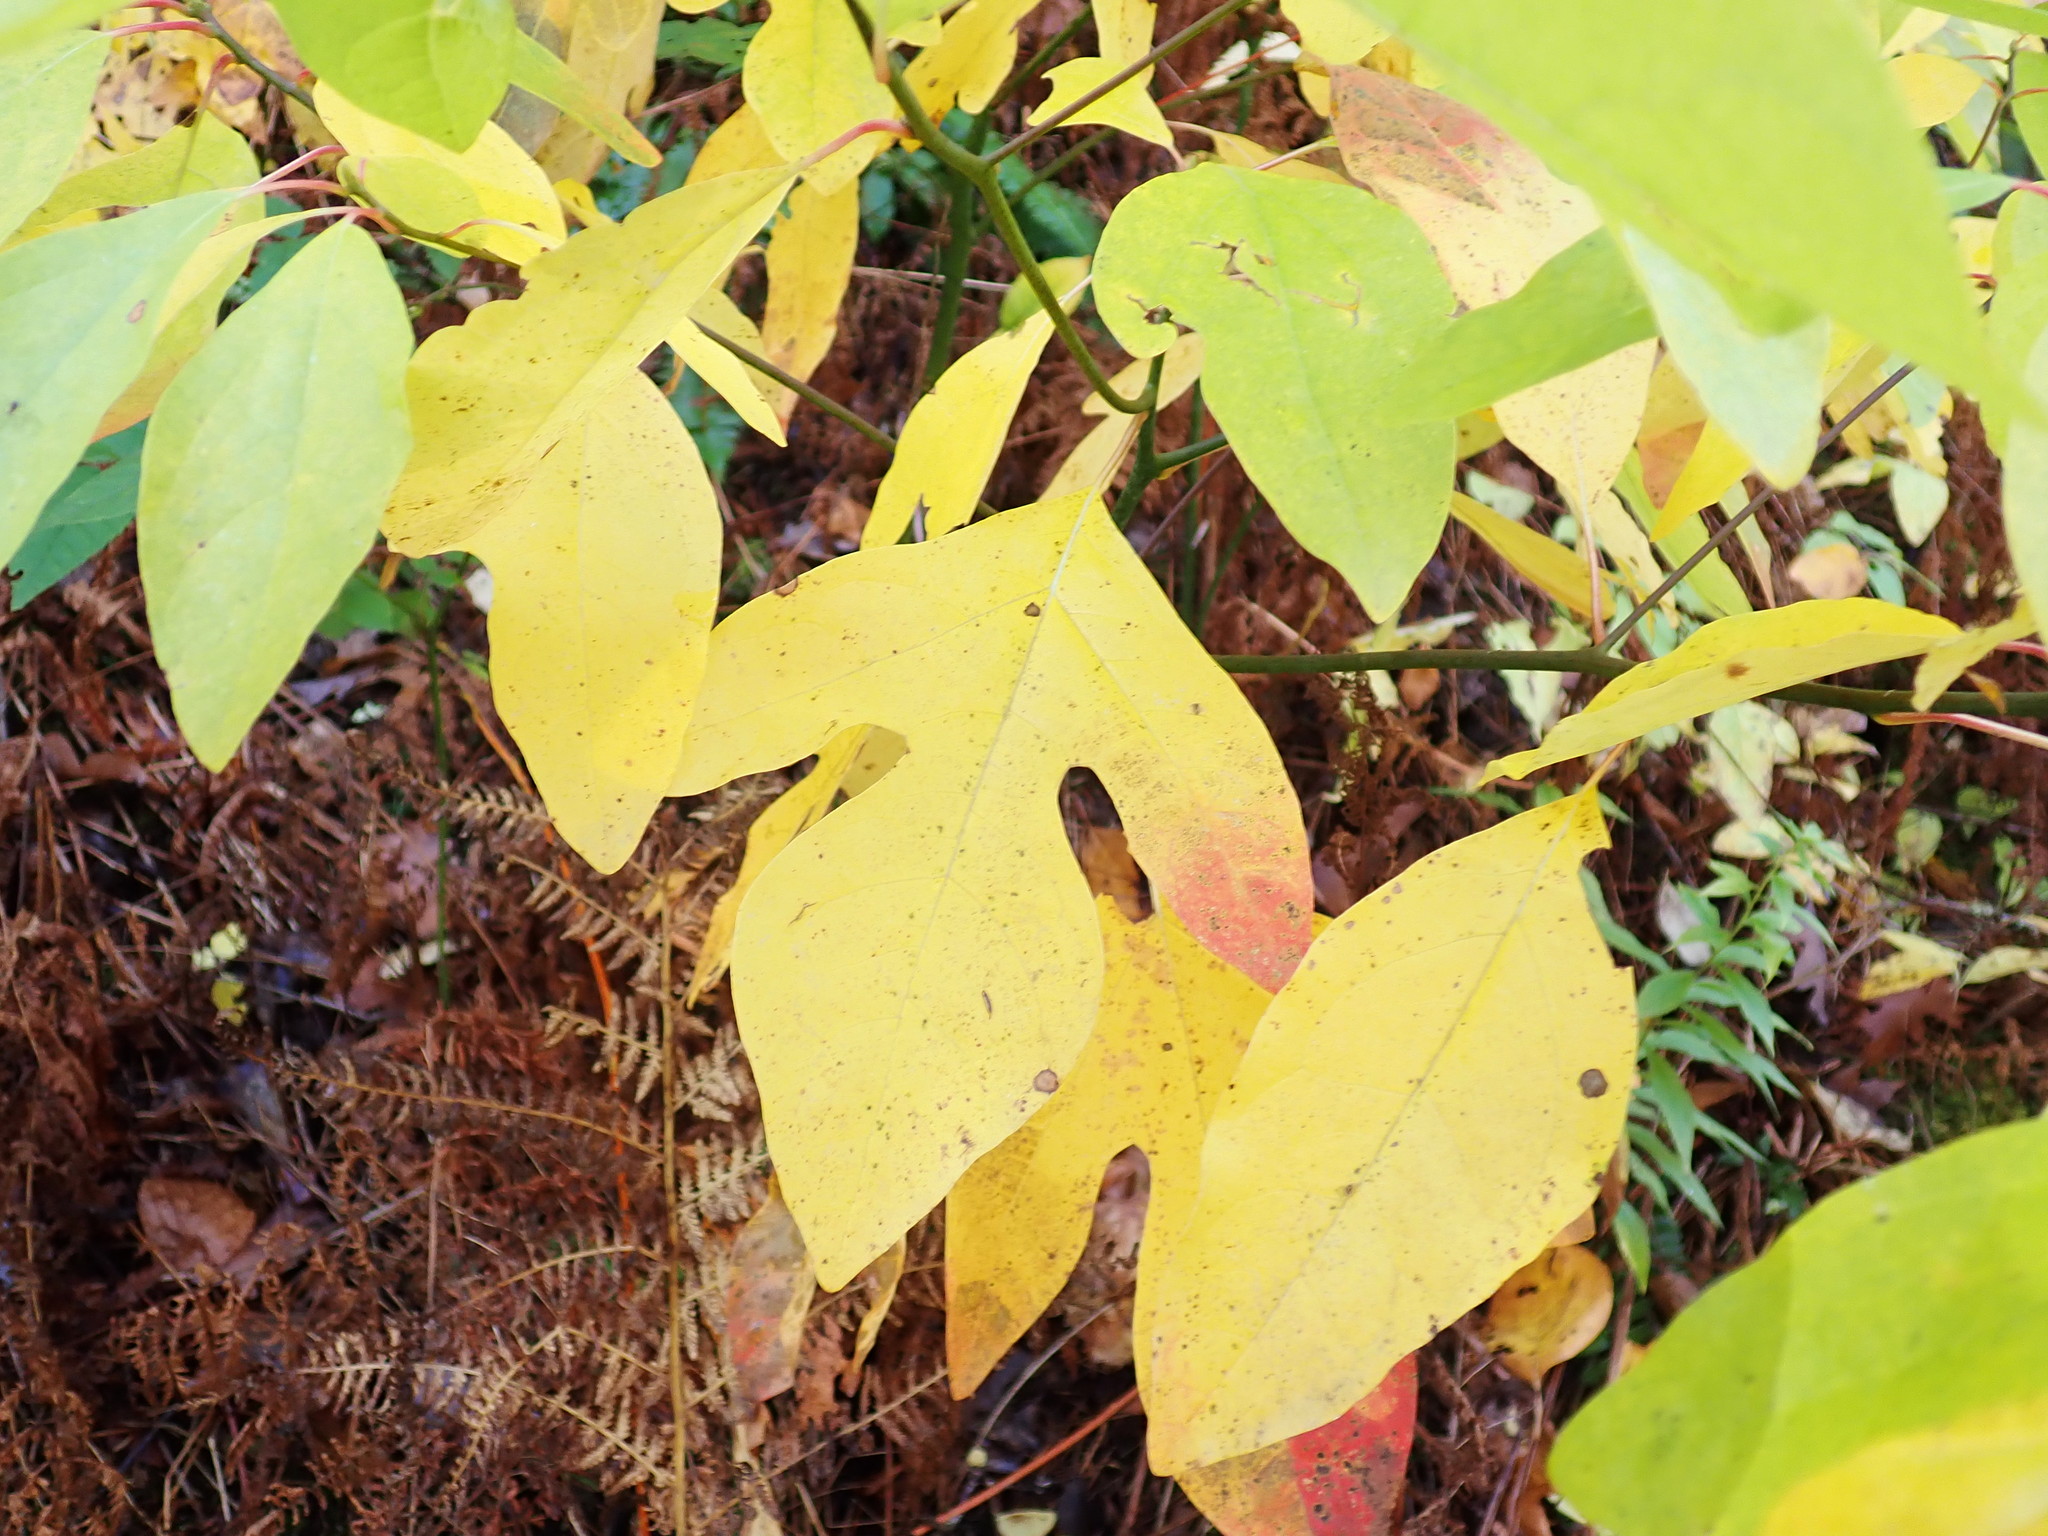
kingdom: Plantae
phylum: Tracheophyta
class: Magnoliopsida
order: Laurales
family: Lauraceae
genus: Sassafras
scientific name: Sassafras albidum
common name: Sassafras
